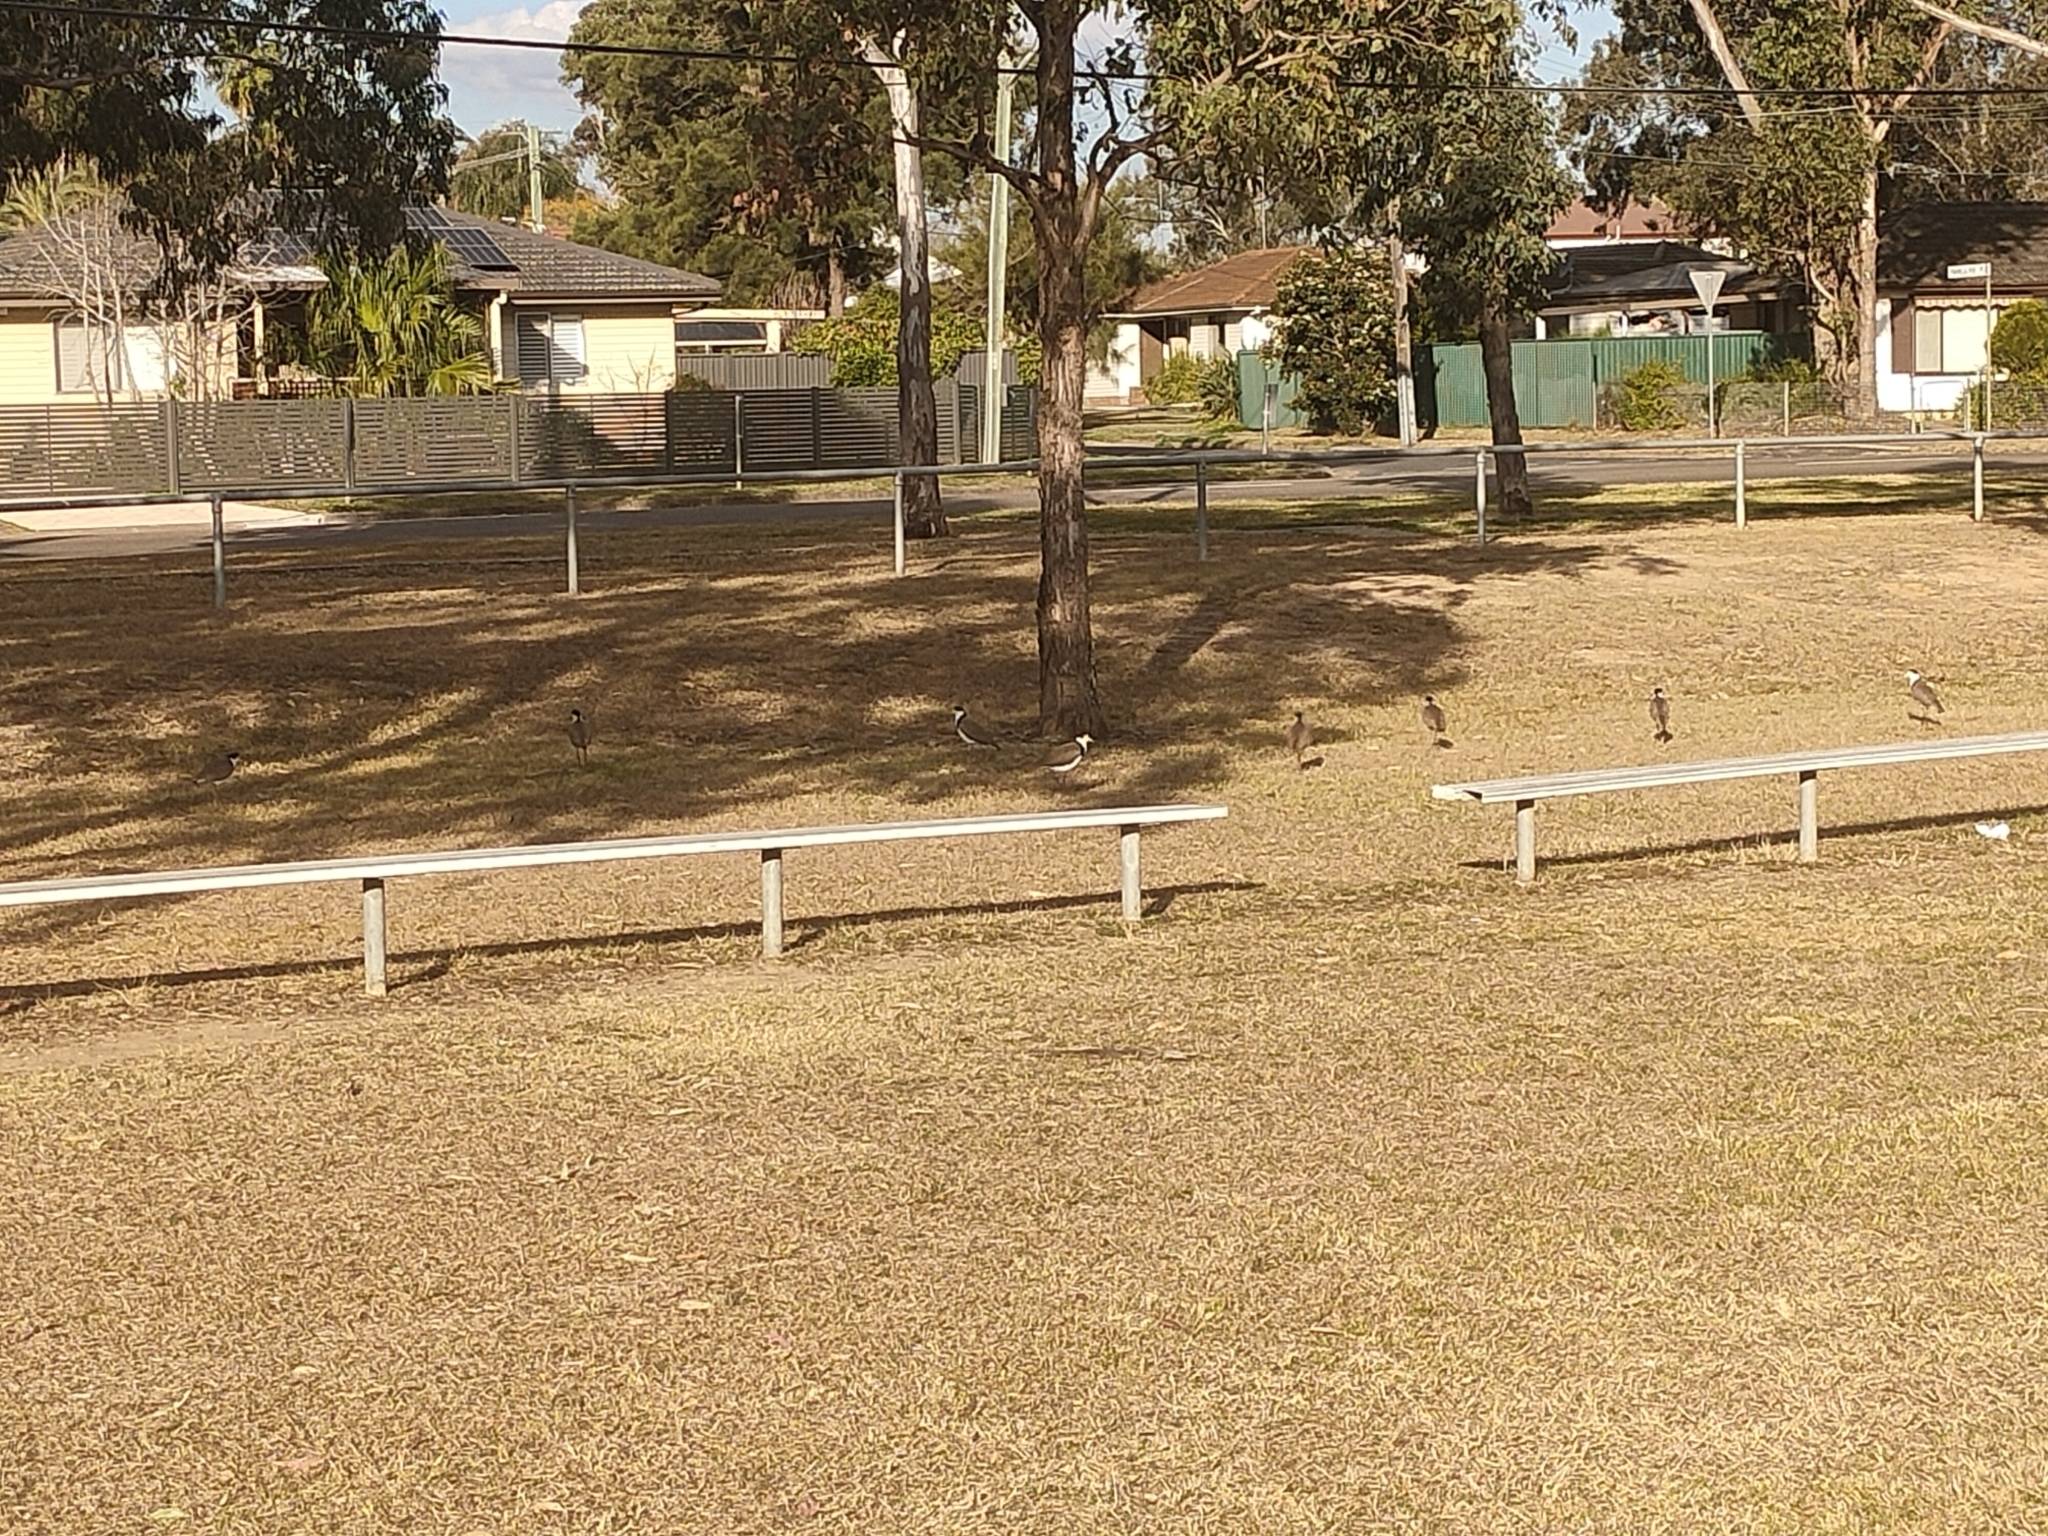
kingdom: Animalia
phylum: Chordata
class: Aves
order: Charadriiformes
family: Charadriidae
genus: Vanellus
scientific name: Vanellus miles
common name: Masked lapwing
